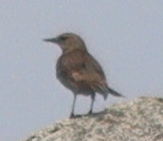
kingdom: Animalia
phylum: Chordata
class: Aves
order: Passeriformes
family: Motacillidae
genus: Anthus
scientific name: Anthus petrosus
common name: Eurasian rock pipit
